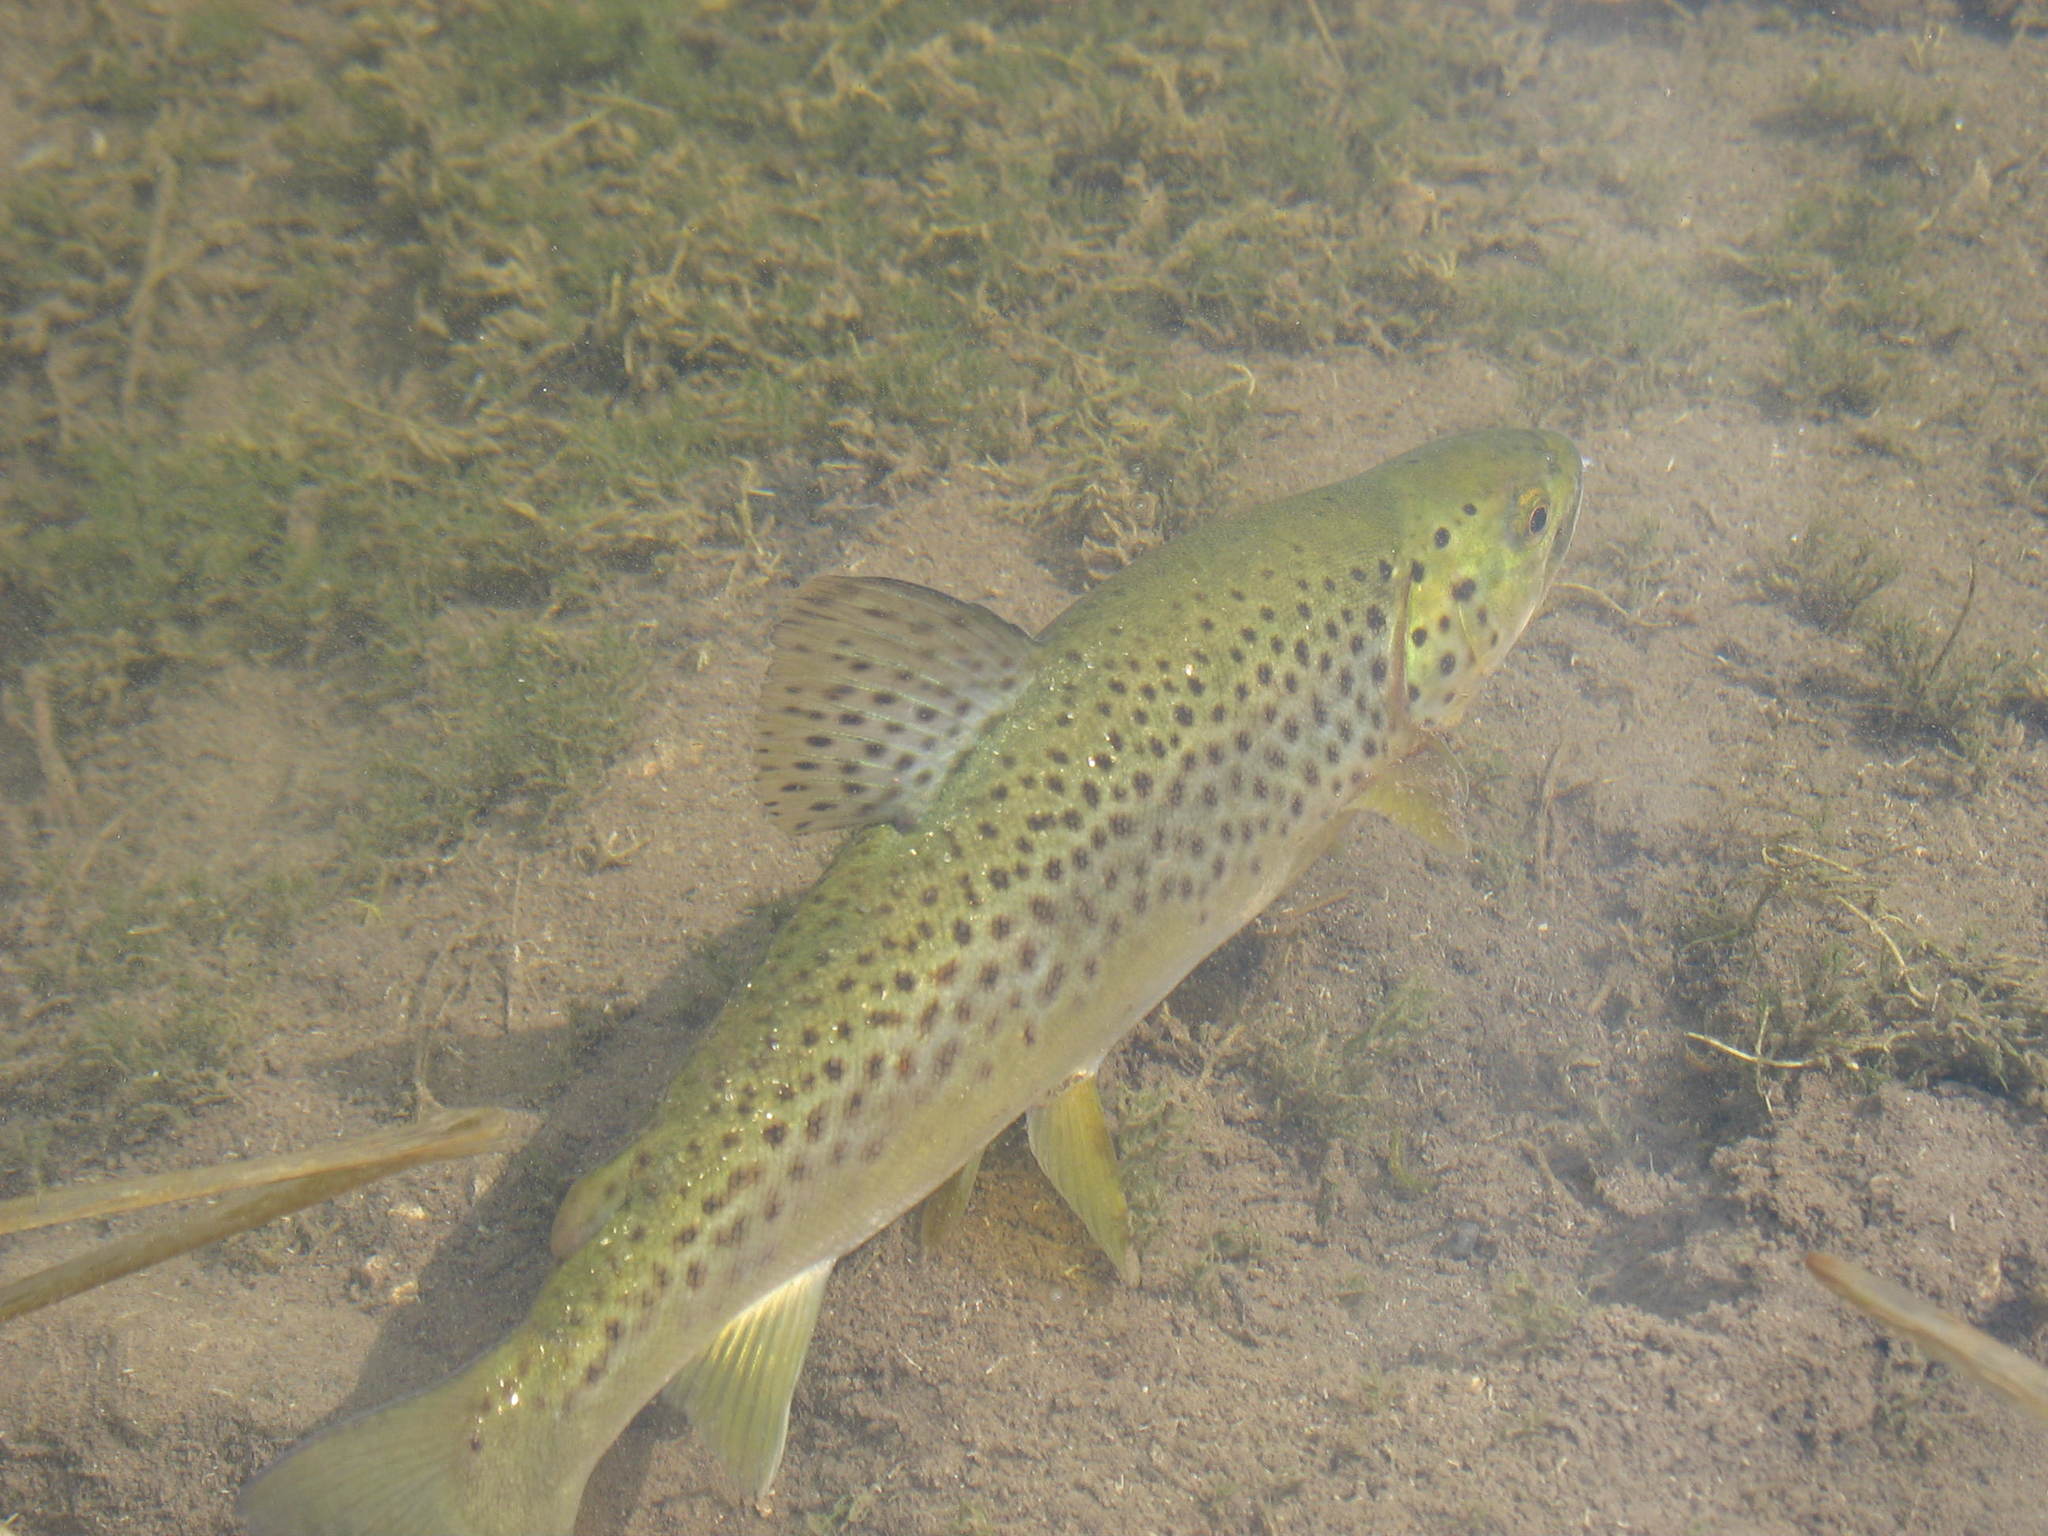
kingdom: Animalia
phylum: Chordata
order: Salmoniformes
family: Salmonidae
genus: Salmo
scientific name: Salmo trutta
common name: Brown trout
